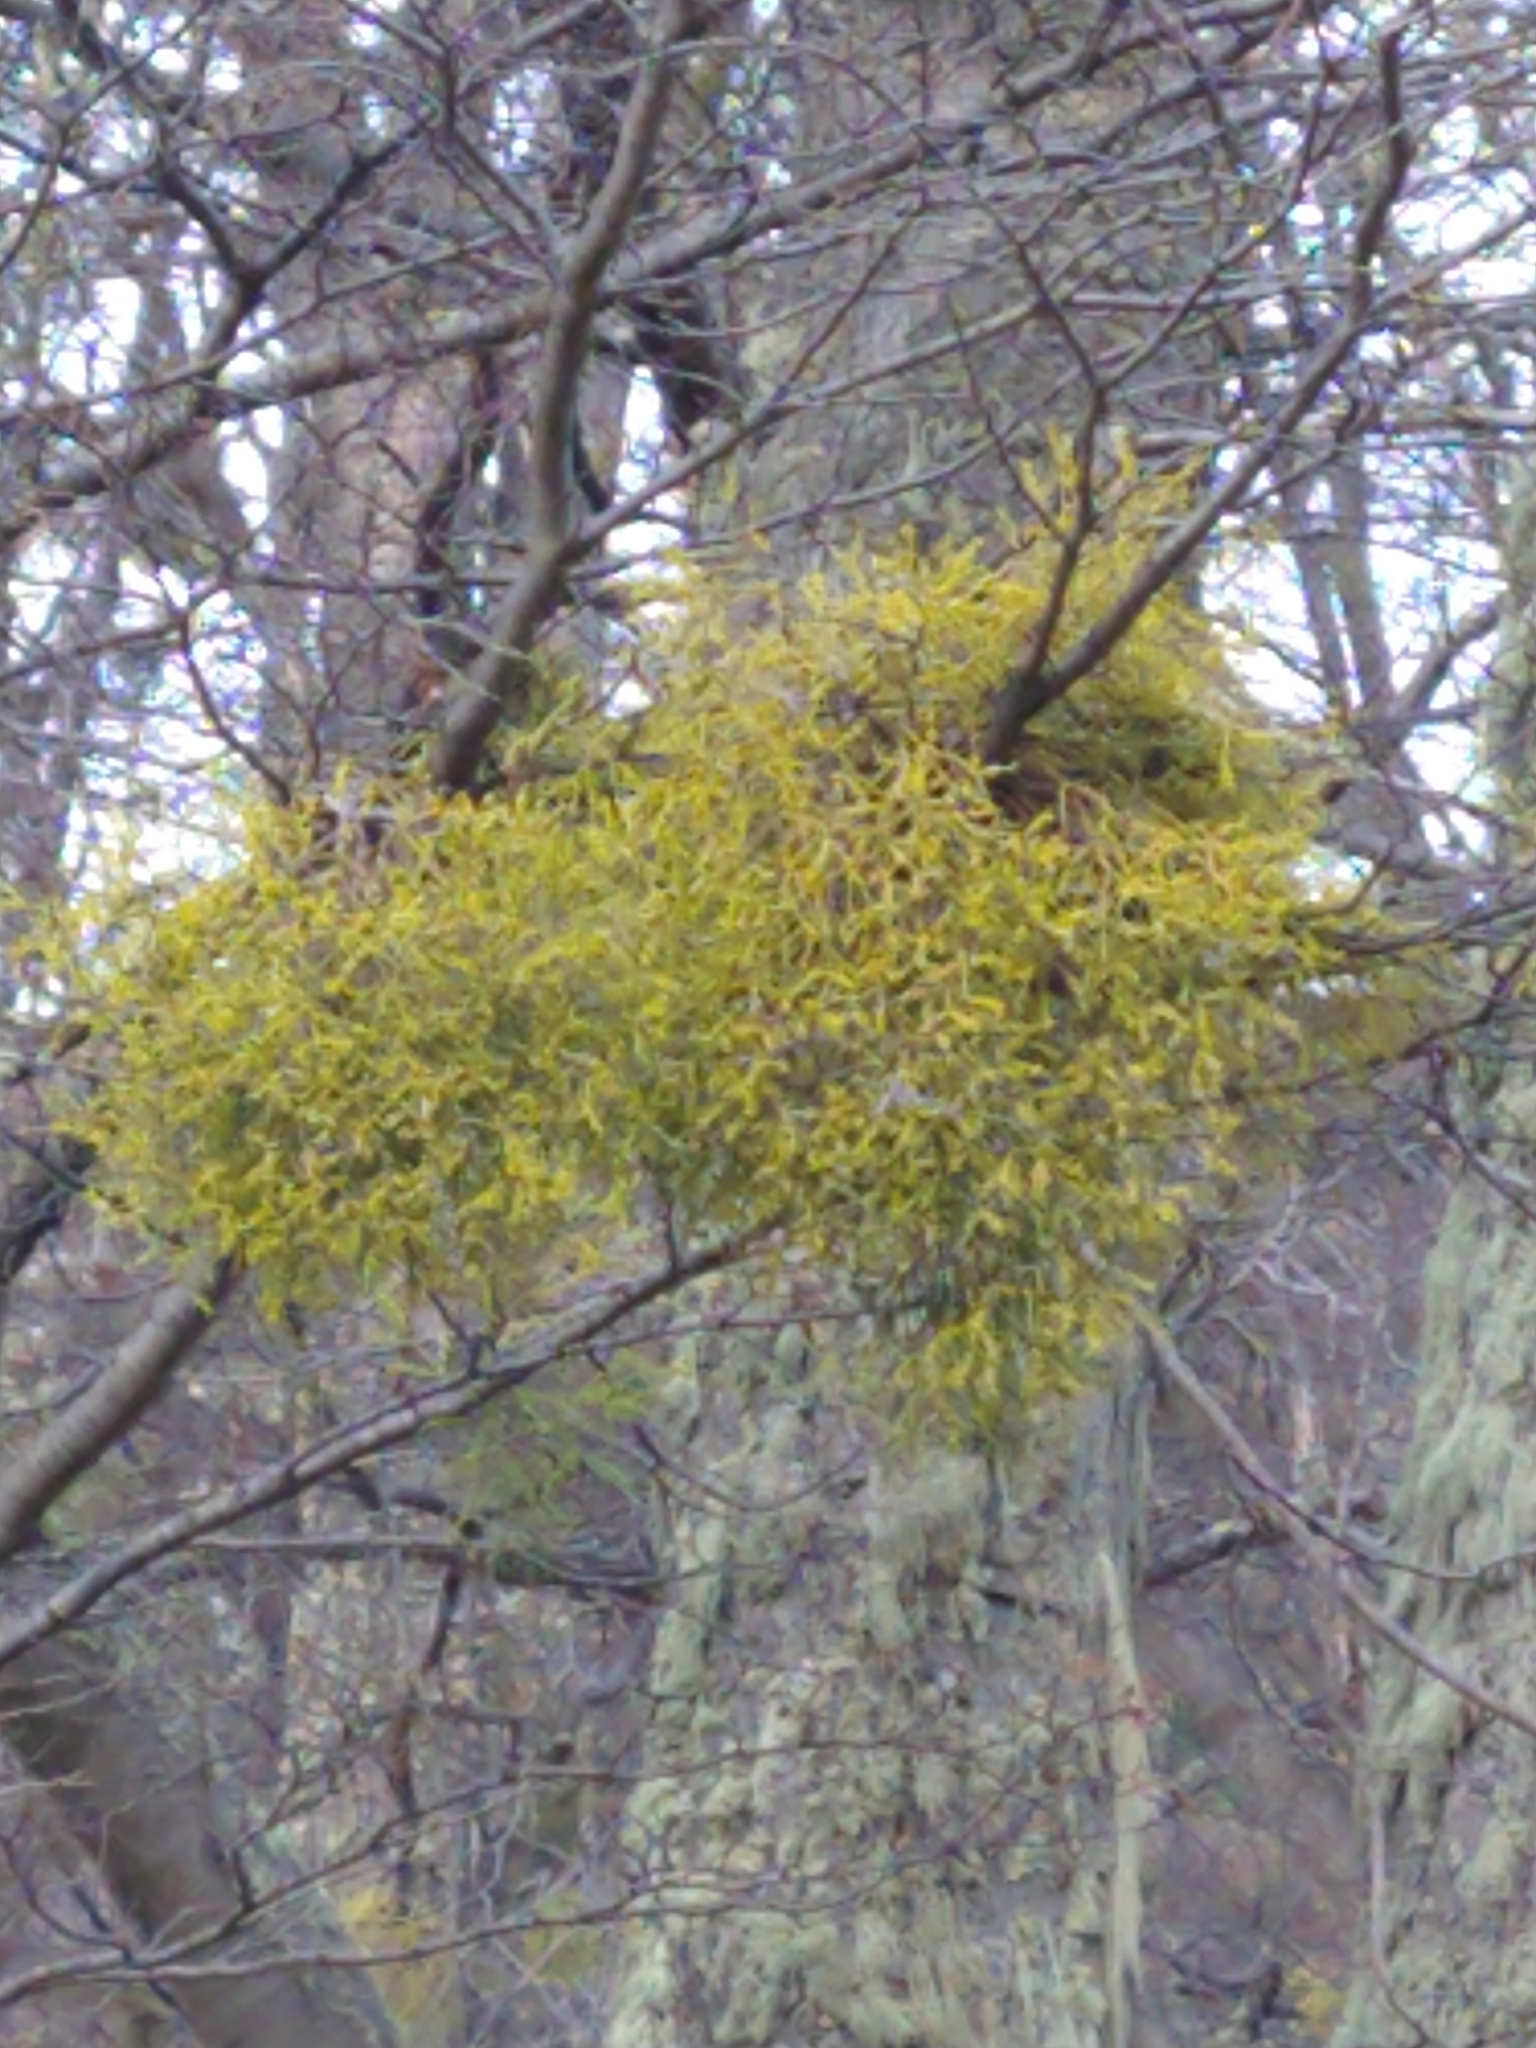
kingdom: Plantae
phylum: Tracheophyta
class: Magnoliopsida
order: Santalales
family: Misodendraceae
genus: Misodendrum
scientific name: Misodendrum punctulatum
